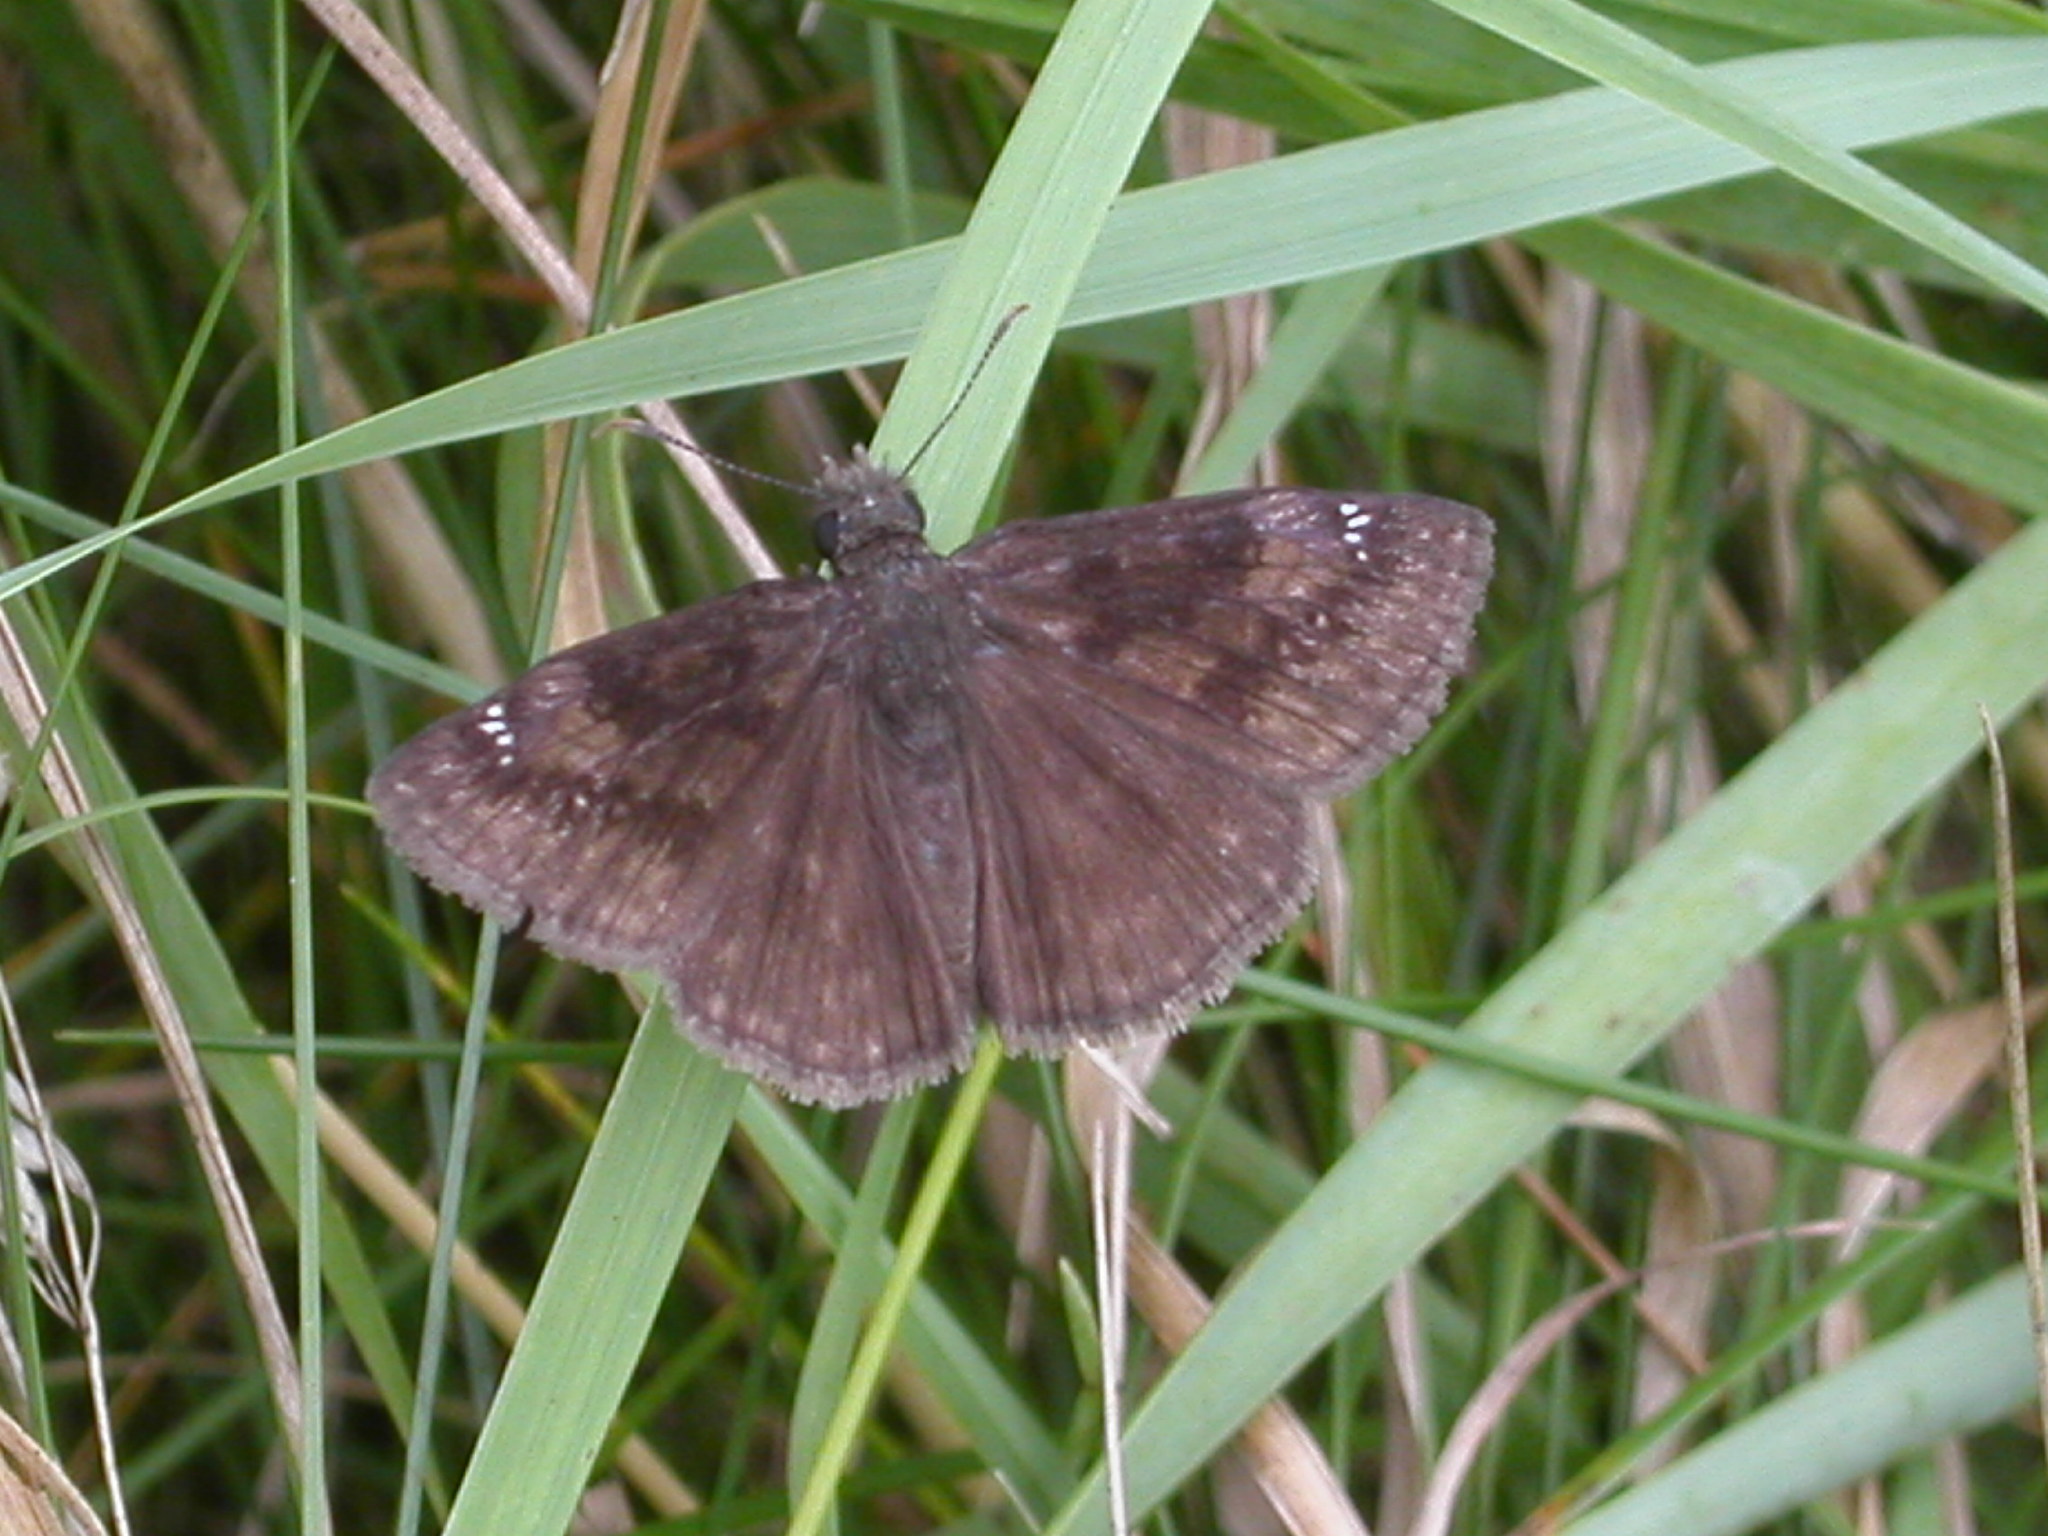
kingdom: Animalia
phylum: Arthropoda
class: Insecta
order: Lepidoptera
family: Hesperiidae
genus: Erynnis
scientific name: Erynnis baptisiae
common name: Wild indigo duskywing
